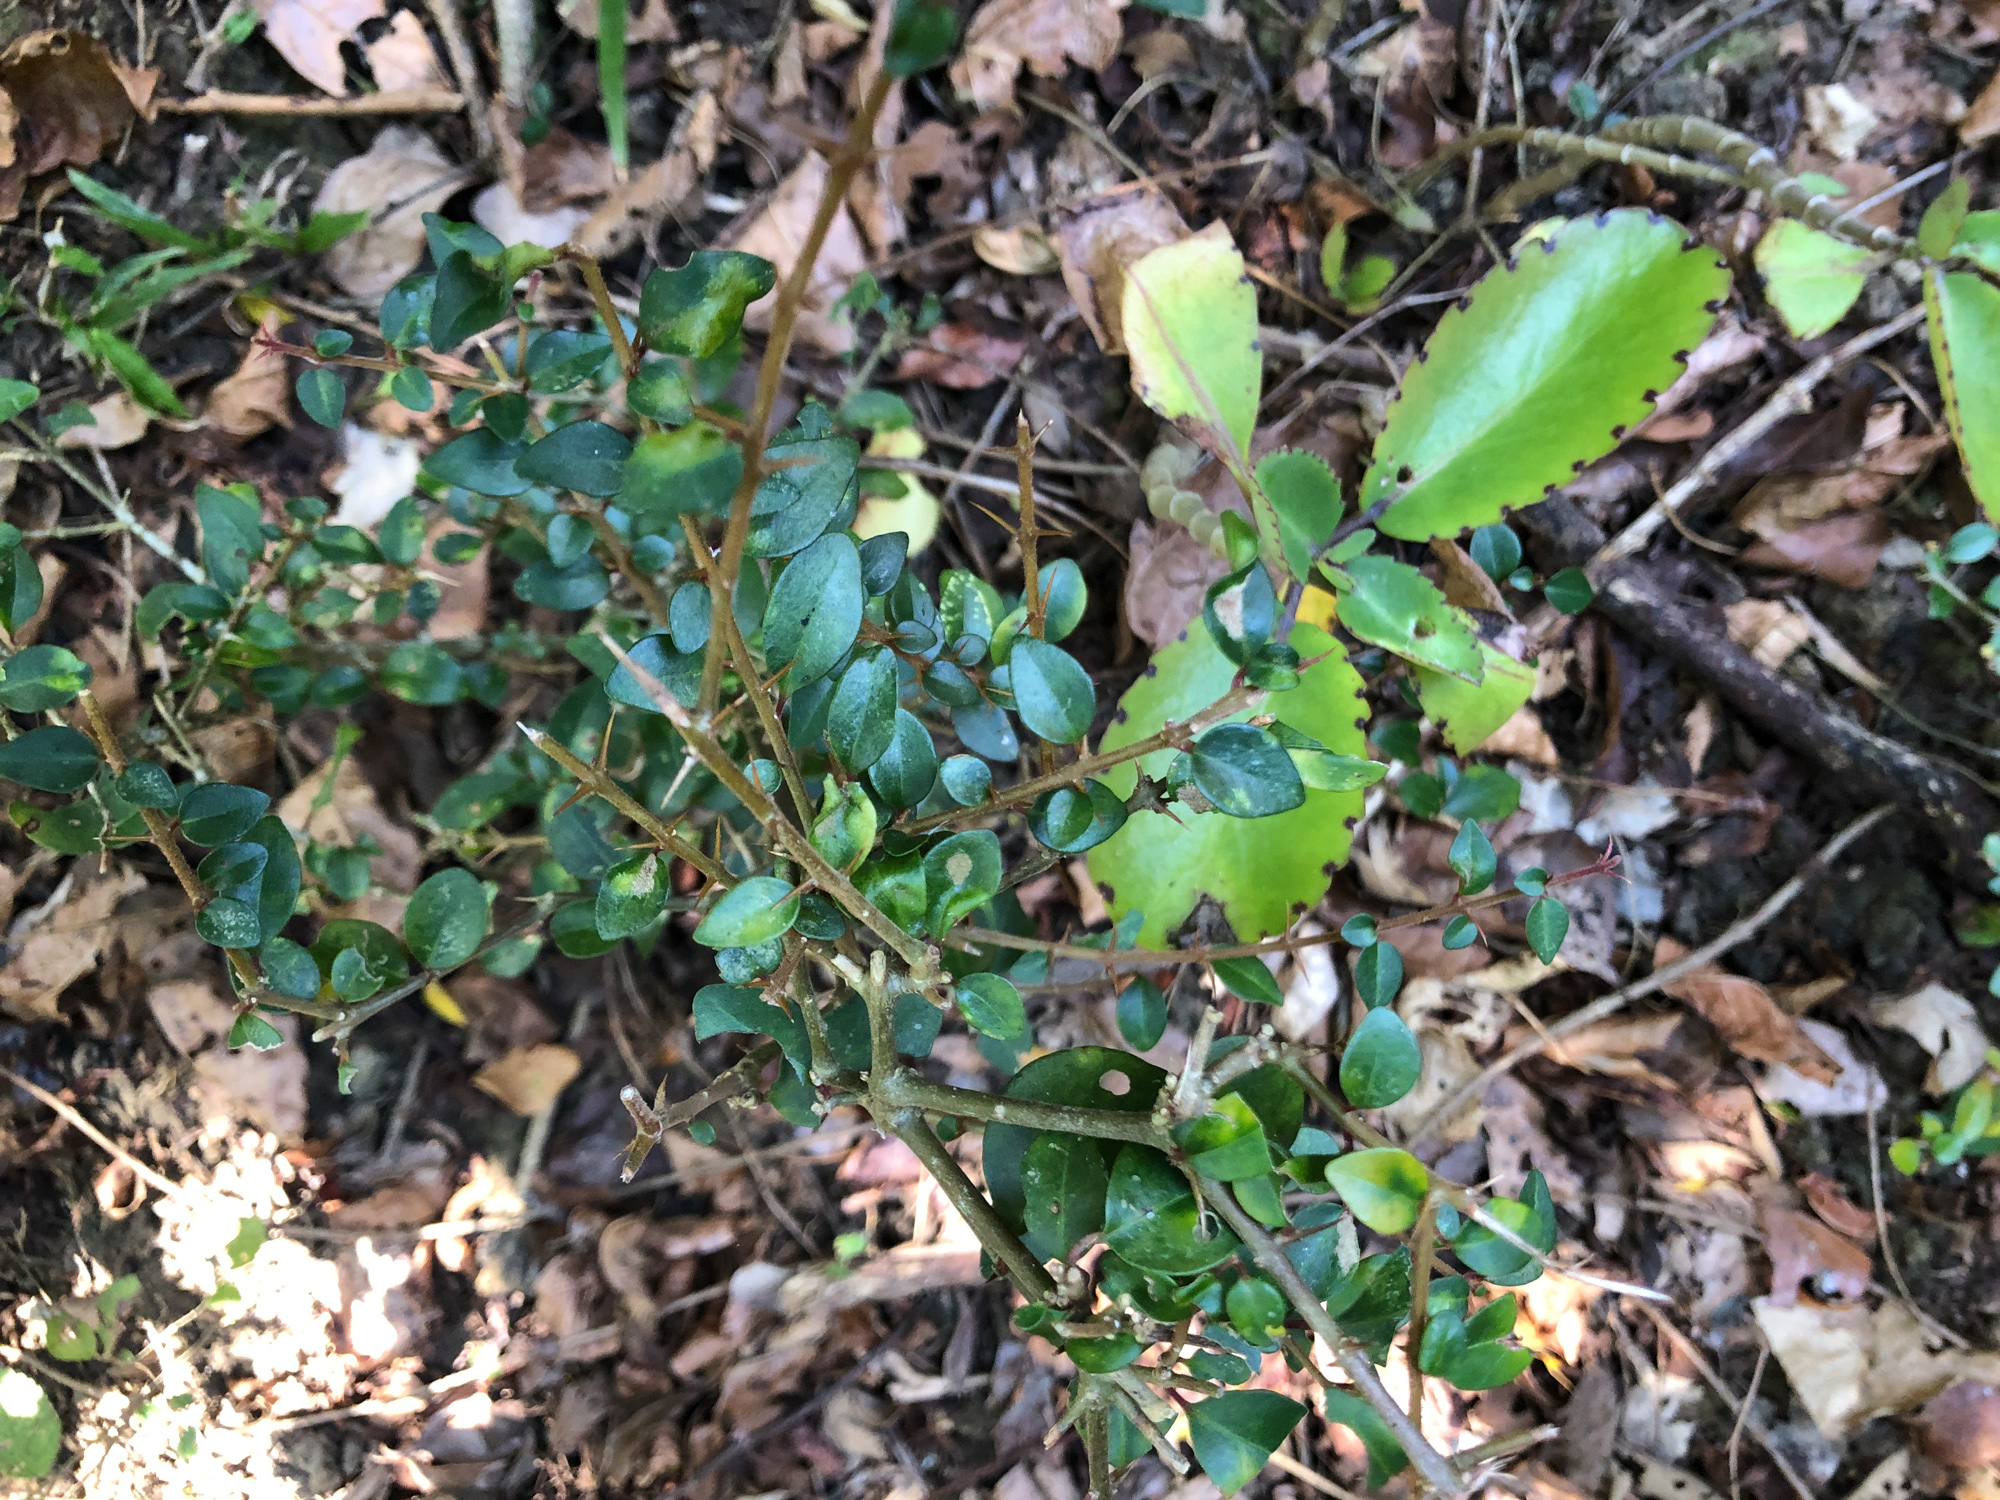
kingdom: Plantae
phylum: Tracheophyta
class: Magnoliopsida
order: Caryophyllales
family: Nyctaginaceae
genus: Pisonia
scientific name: Pisonia aculeata
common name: Cockspur vine
